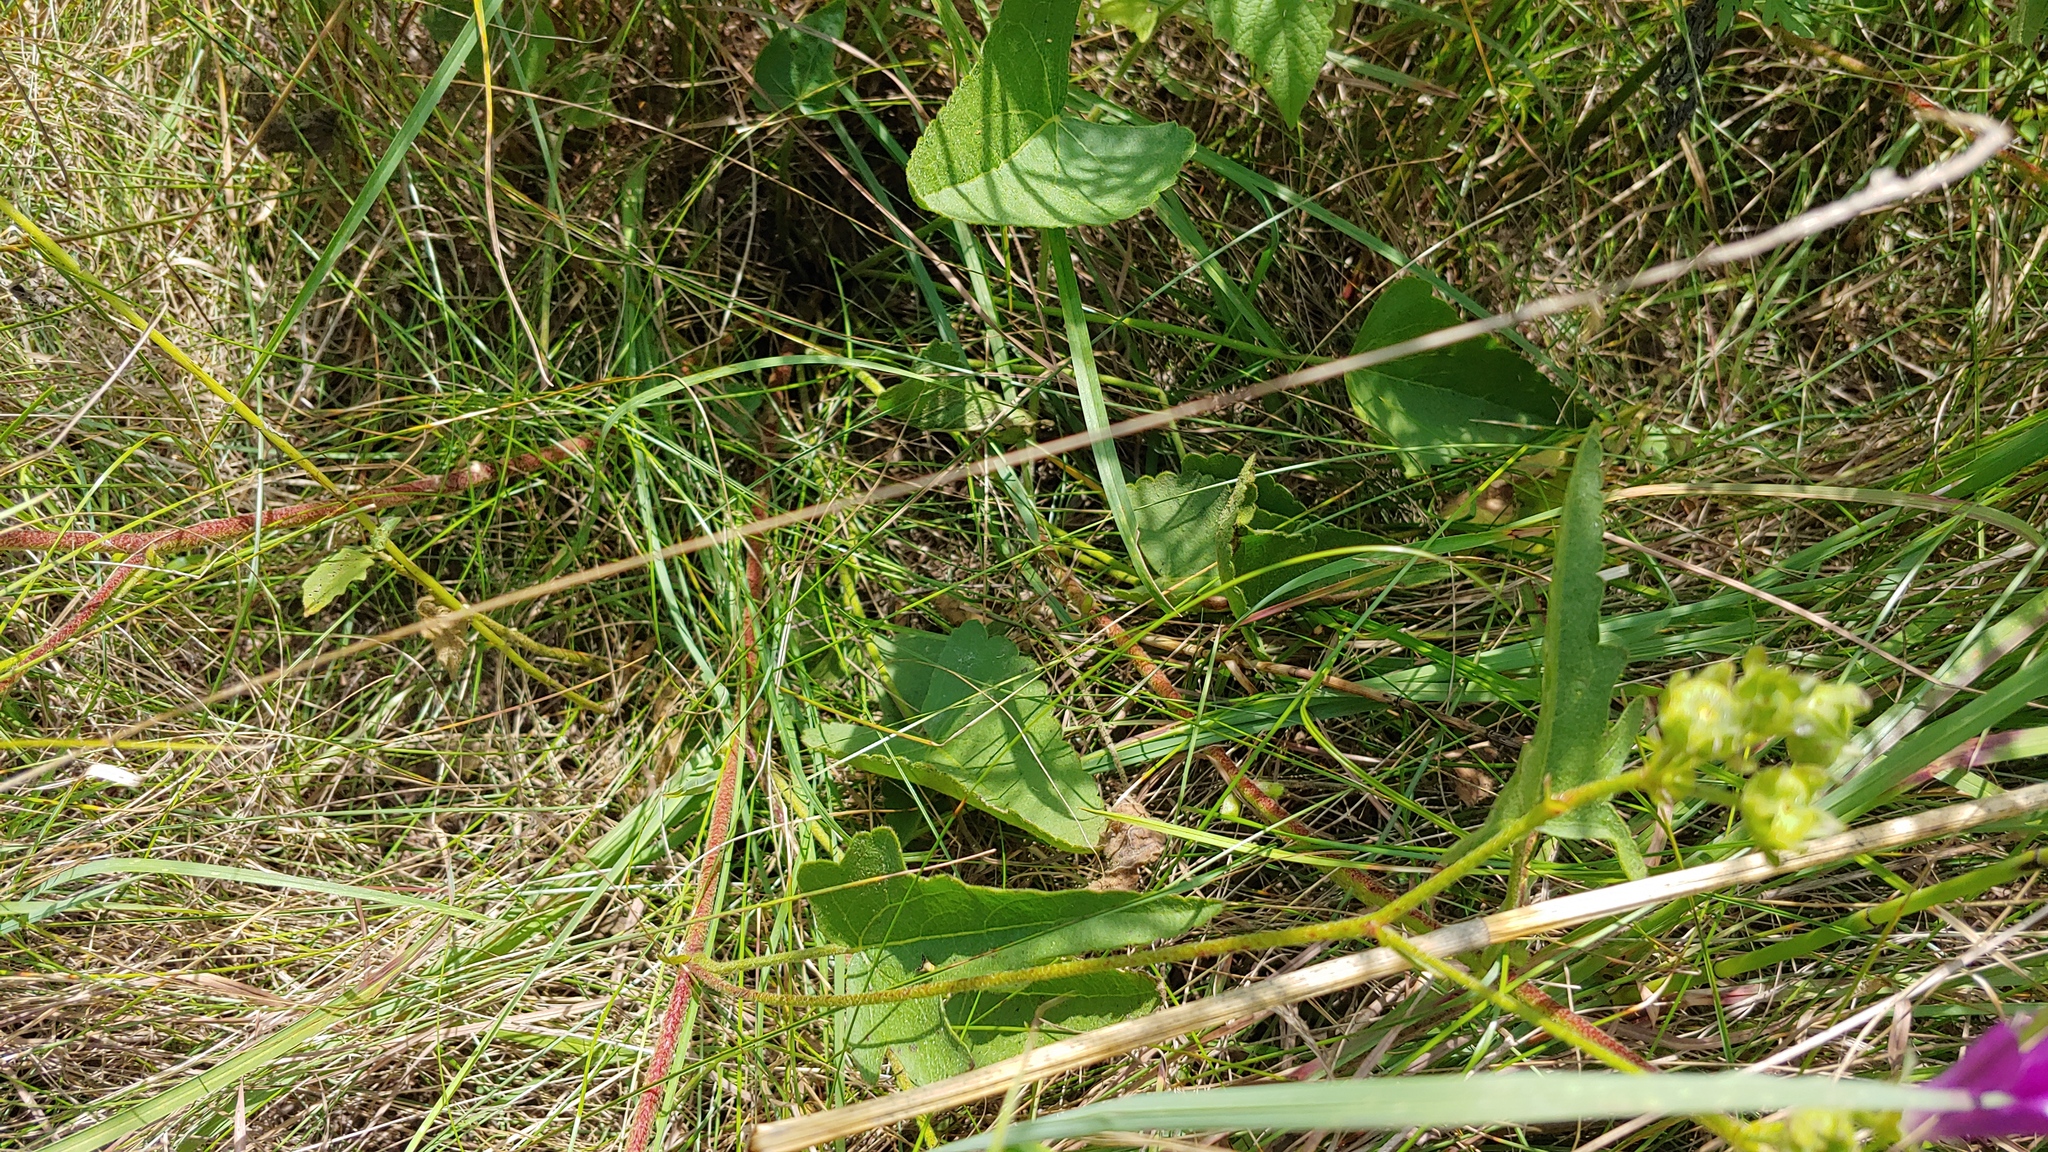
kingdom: Plantae
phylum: Tracheophyta
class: Magnoliopsida
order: Malvales
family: Malvaceae
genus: Callirhoe
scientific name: Callirhoe triangulata
